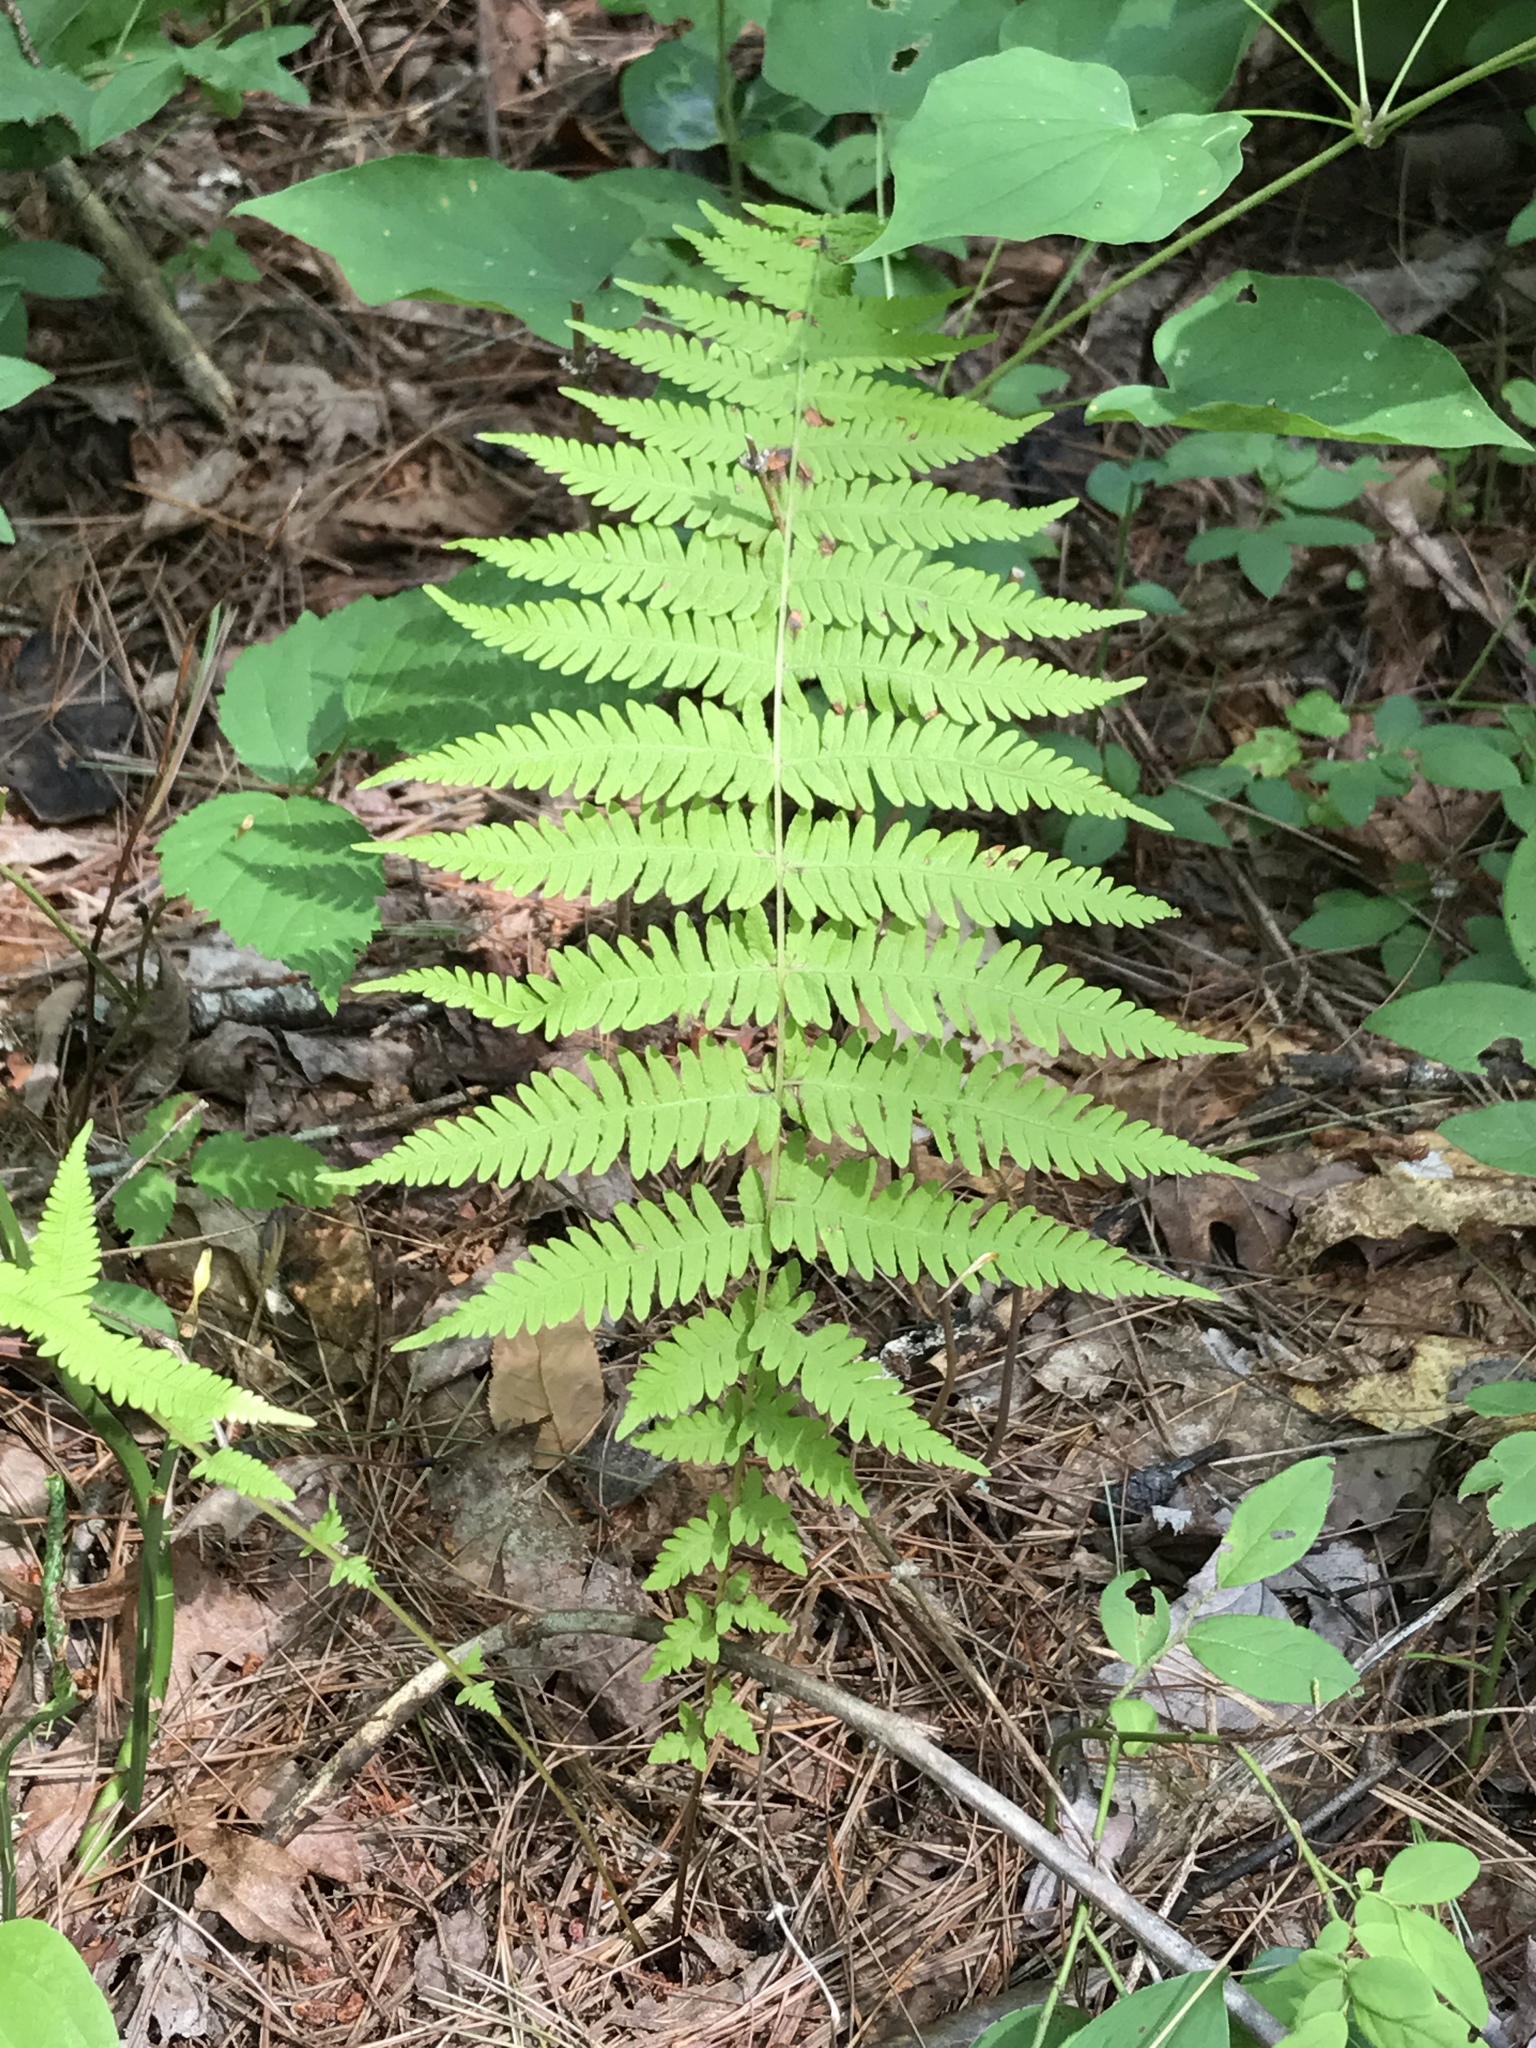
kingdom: Plantae
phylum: Tracheophyta
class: Polypodiopsida
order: Polypodiales
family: Thelypteridaceae
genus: Amauropelta
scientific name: Amauropelta noveboracensis
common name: New york fern
